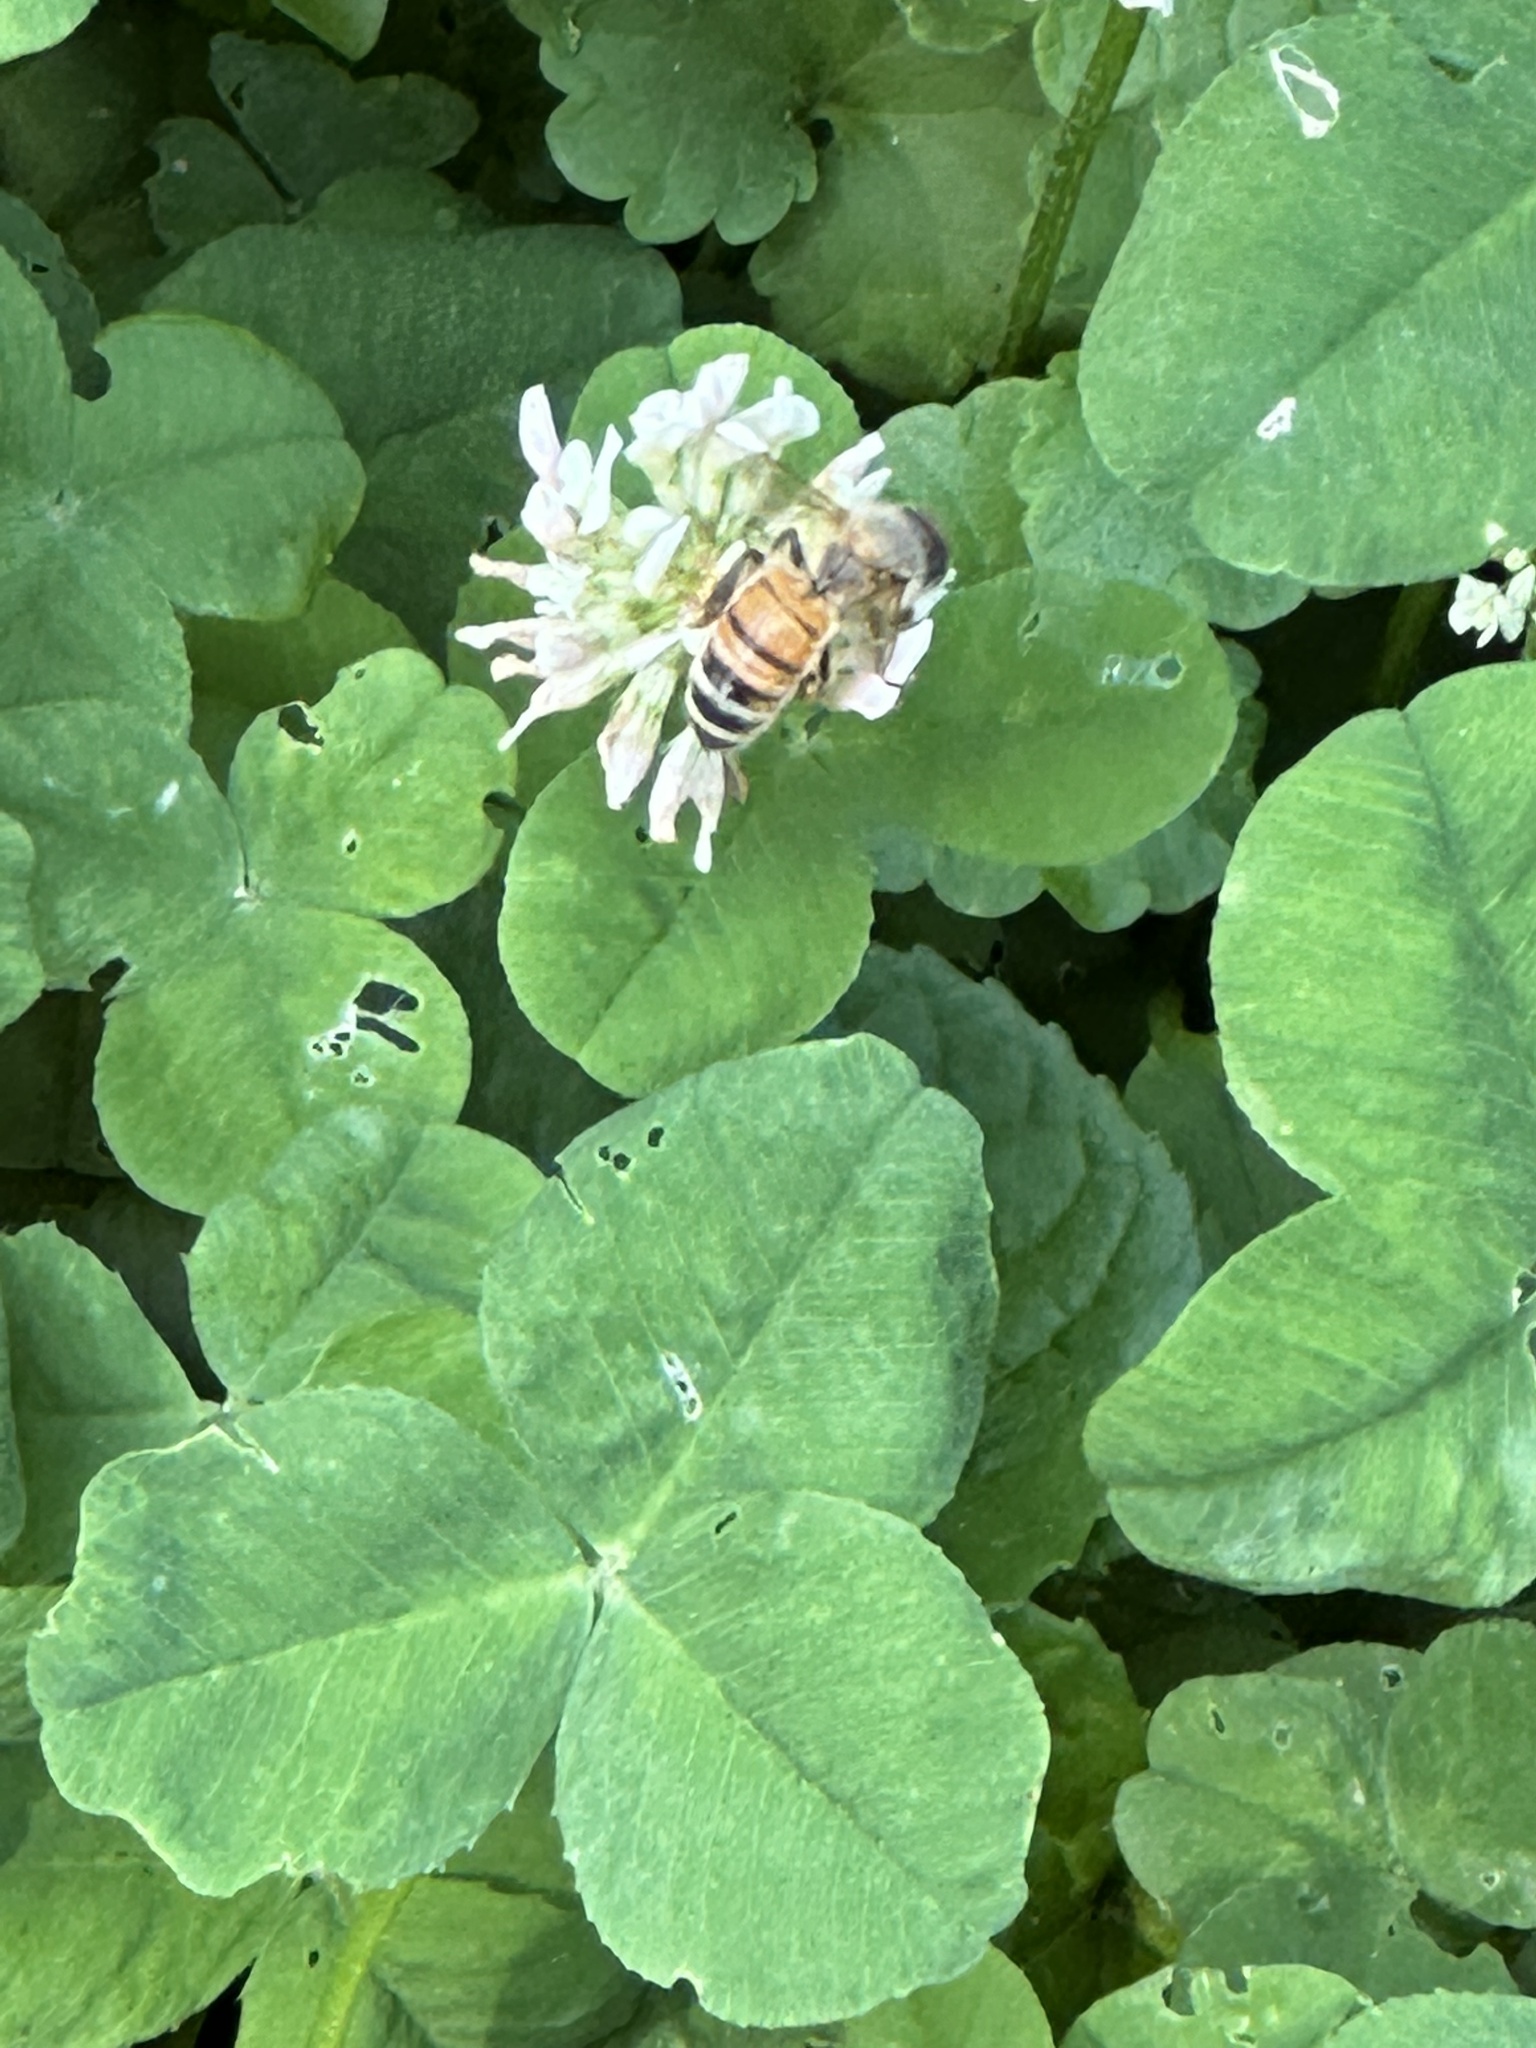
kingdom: Animalia
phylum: Arthropoda
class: Insecta
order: Hymenoptera
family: Apidae
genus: Apis
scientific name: Apis mellifera
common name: Honey bee
